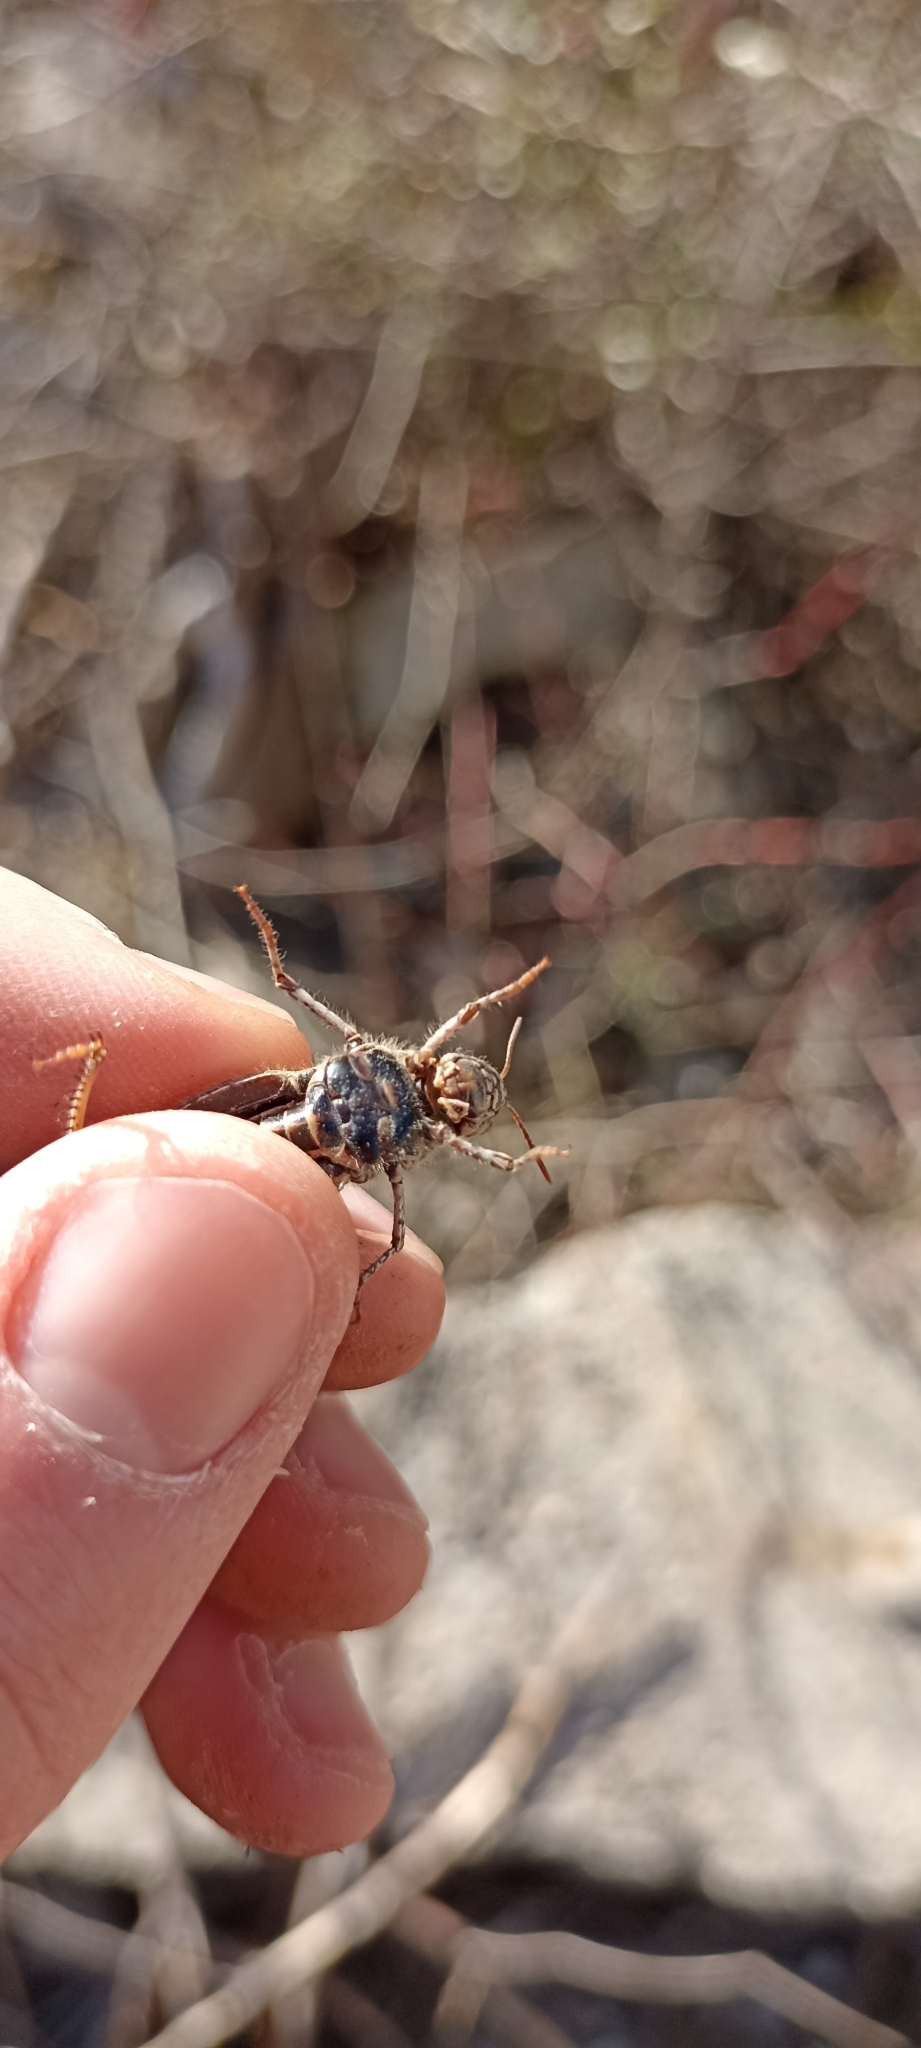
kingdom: Animalia
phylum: Arthropoda
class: Insecta
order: Orthoptera
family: Acrididae
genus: Acrotylus
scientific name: Acrotylus insubricus
